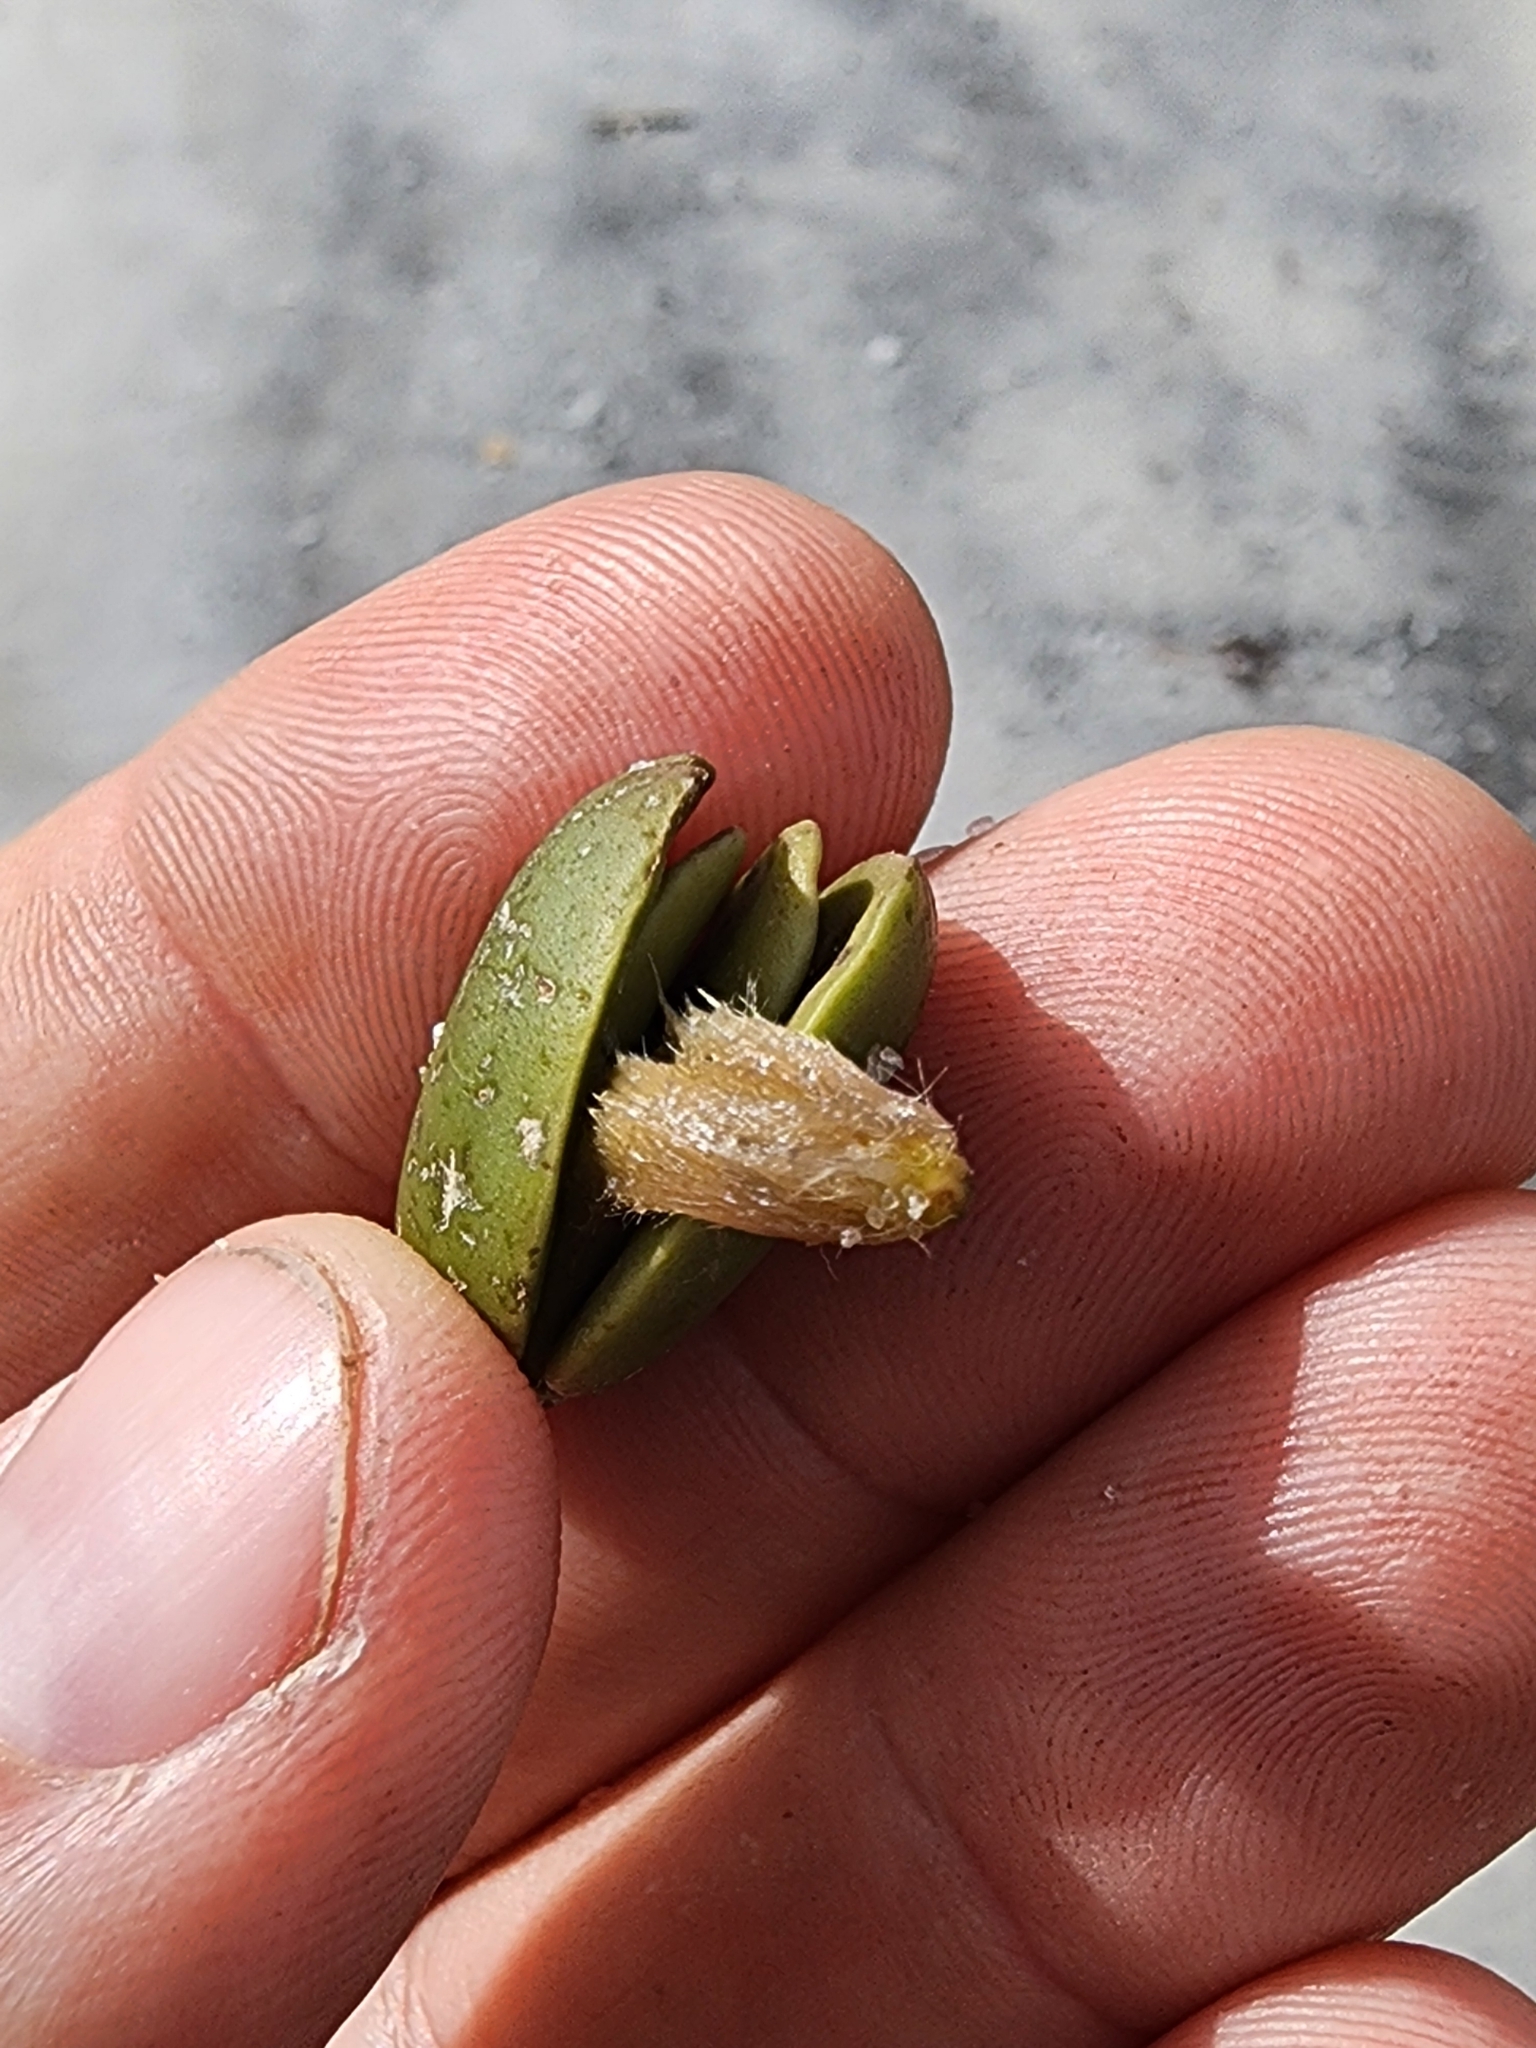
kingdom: Plantae
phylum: Tracheophyta
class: Magnoliopsida
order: Lamiales
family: Acanthaceae
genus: Avicennia
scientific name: Avicennia germinans
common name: Black mangrove
